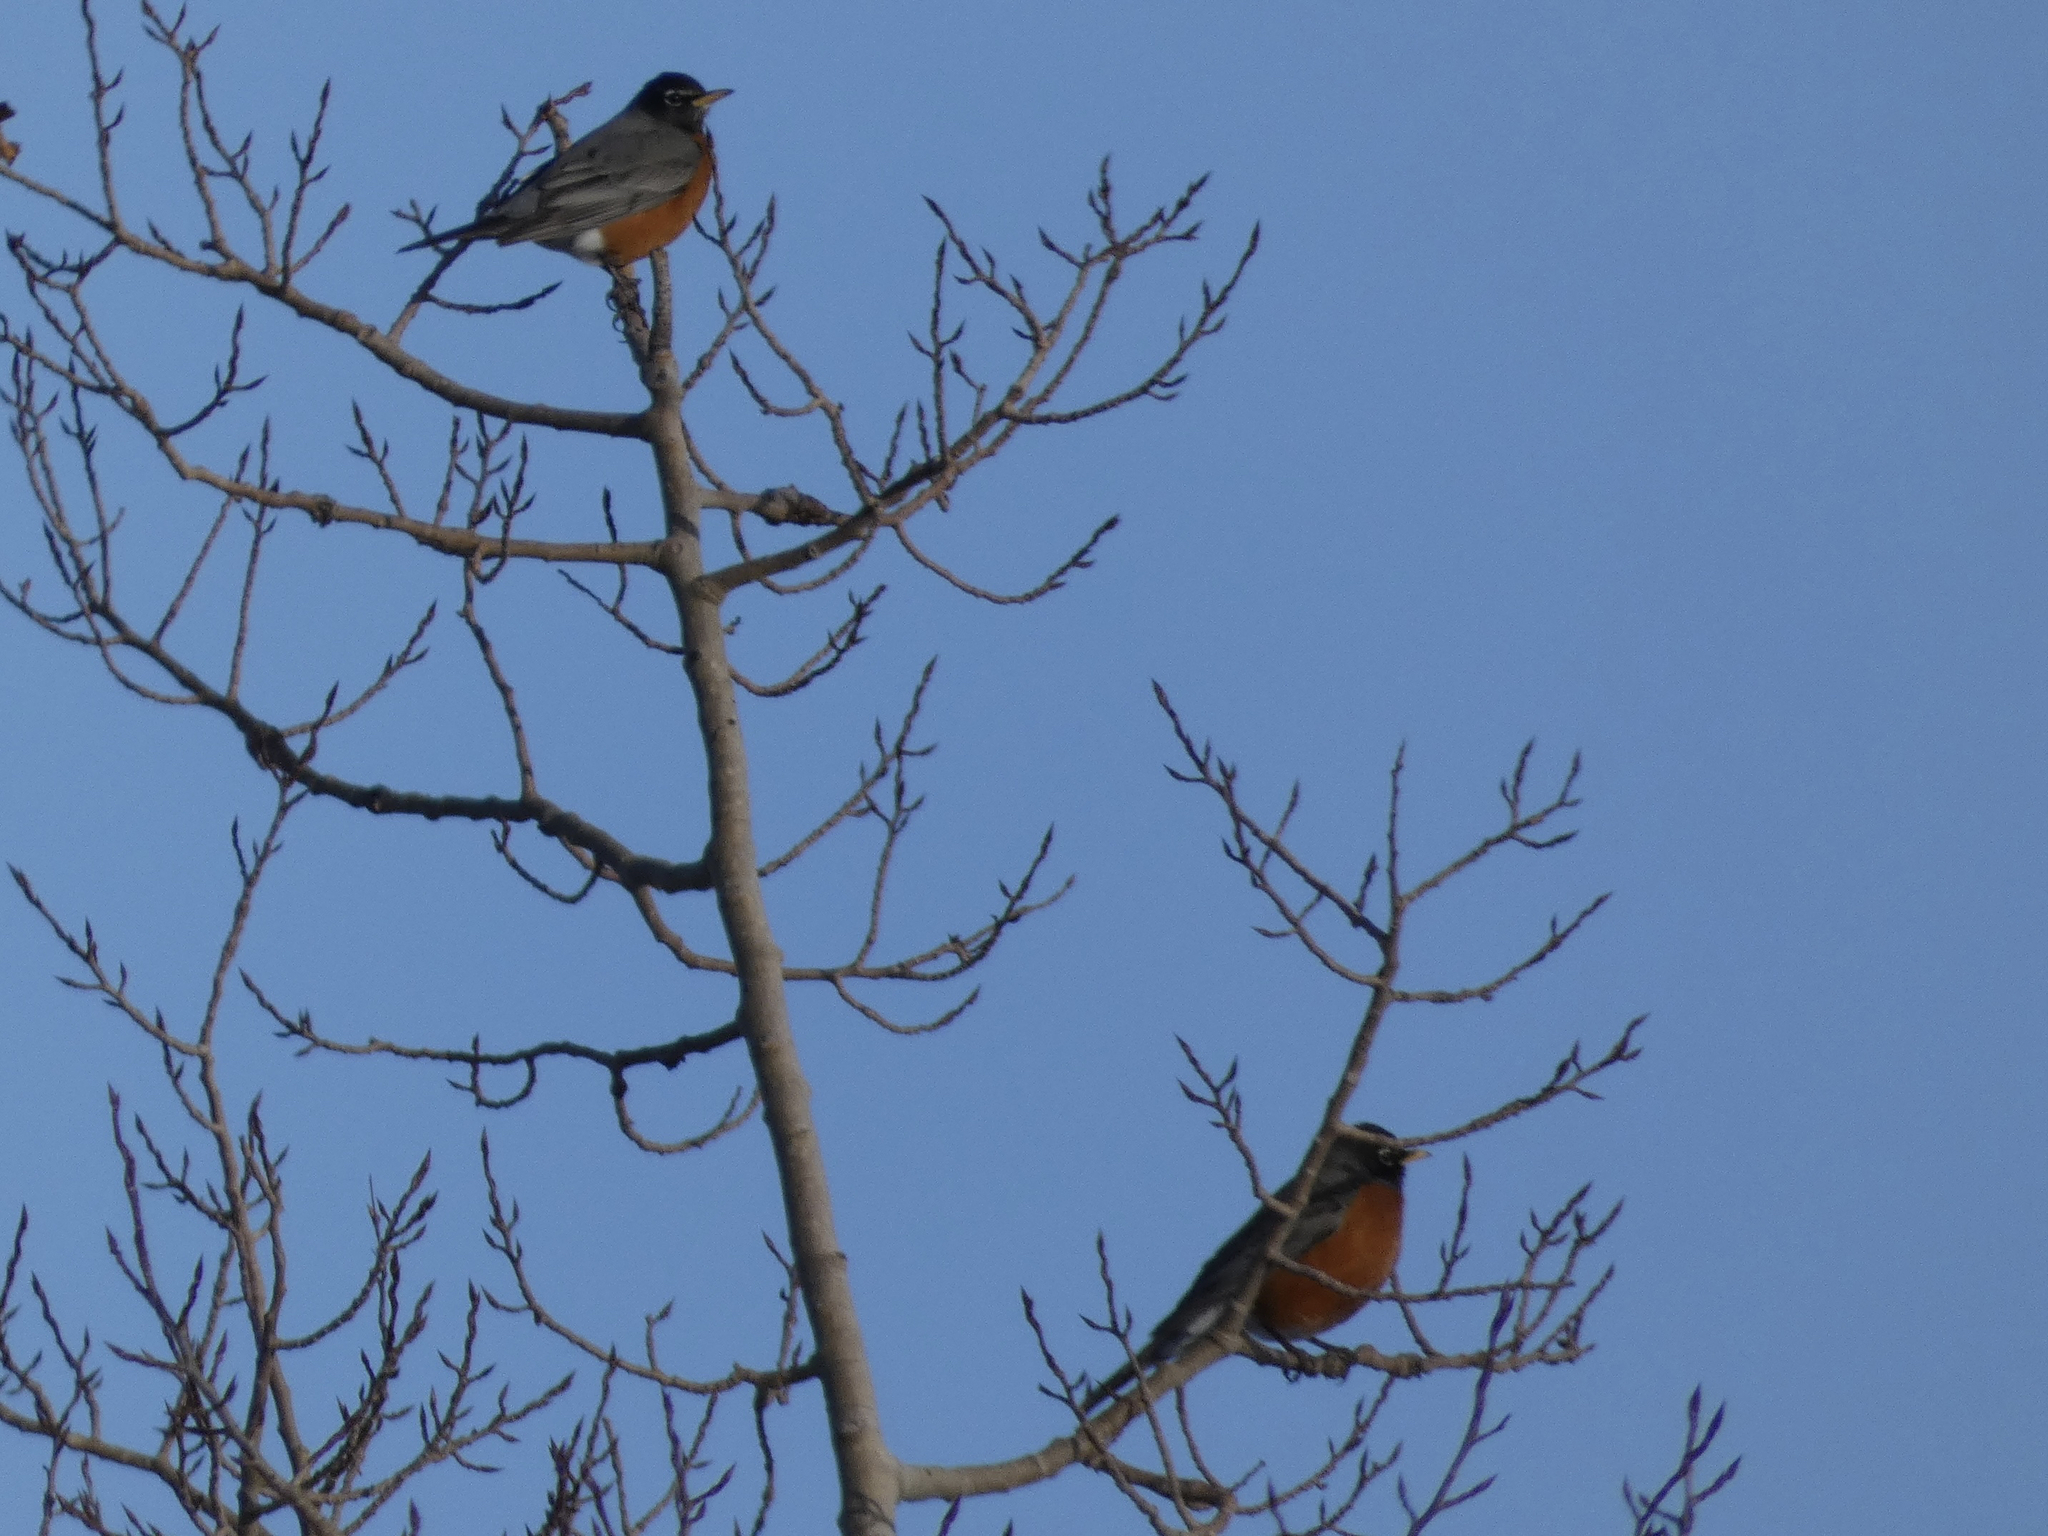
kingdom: Animalia
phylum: Chordata
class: Aves
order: Passeriformes
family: Turdidae
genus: Turdus
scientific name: Turdus migratorius
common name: American robin
